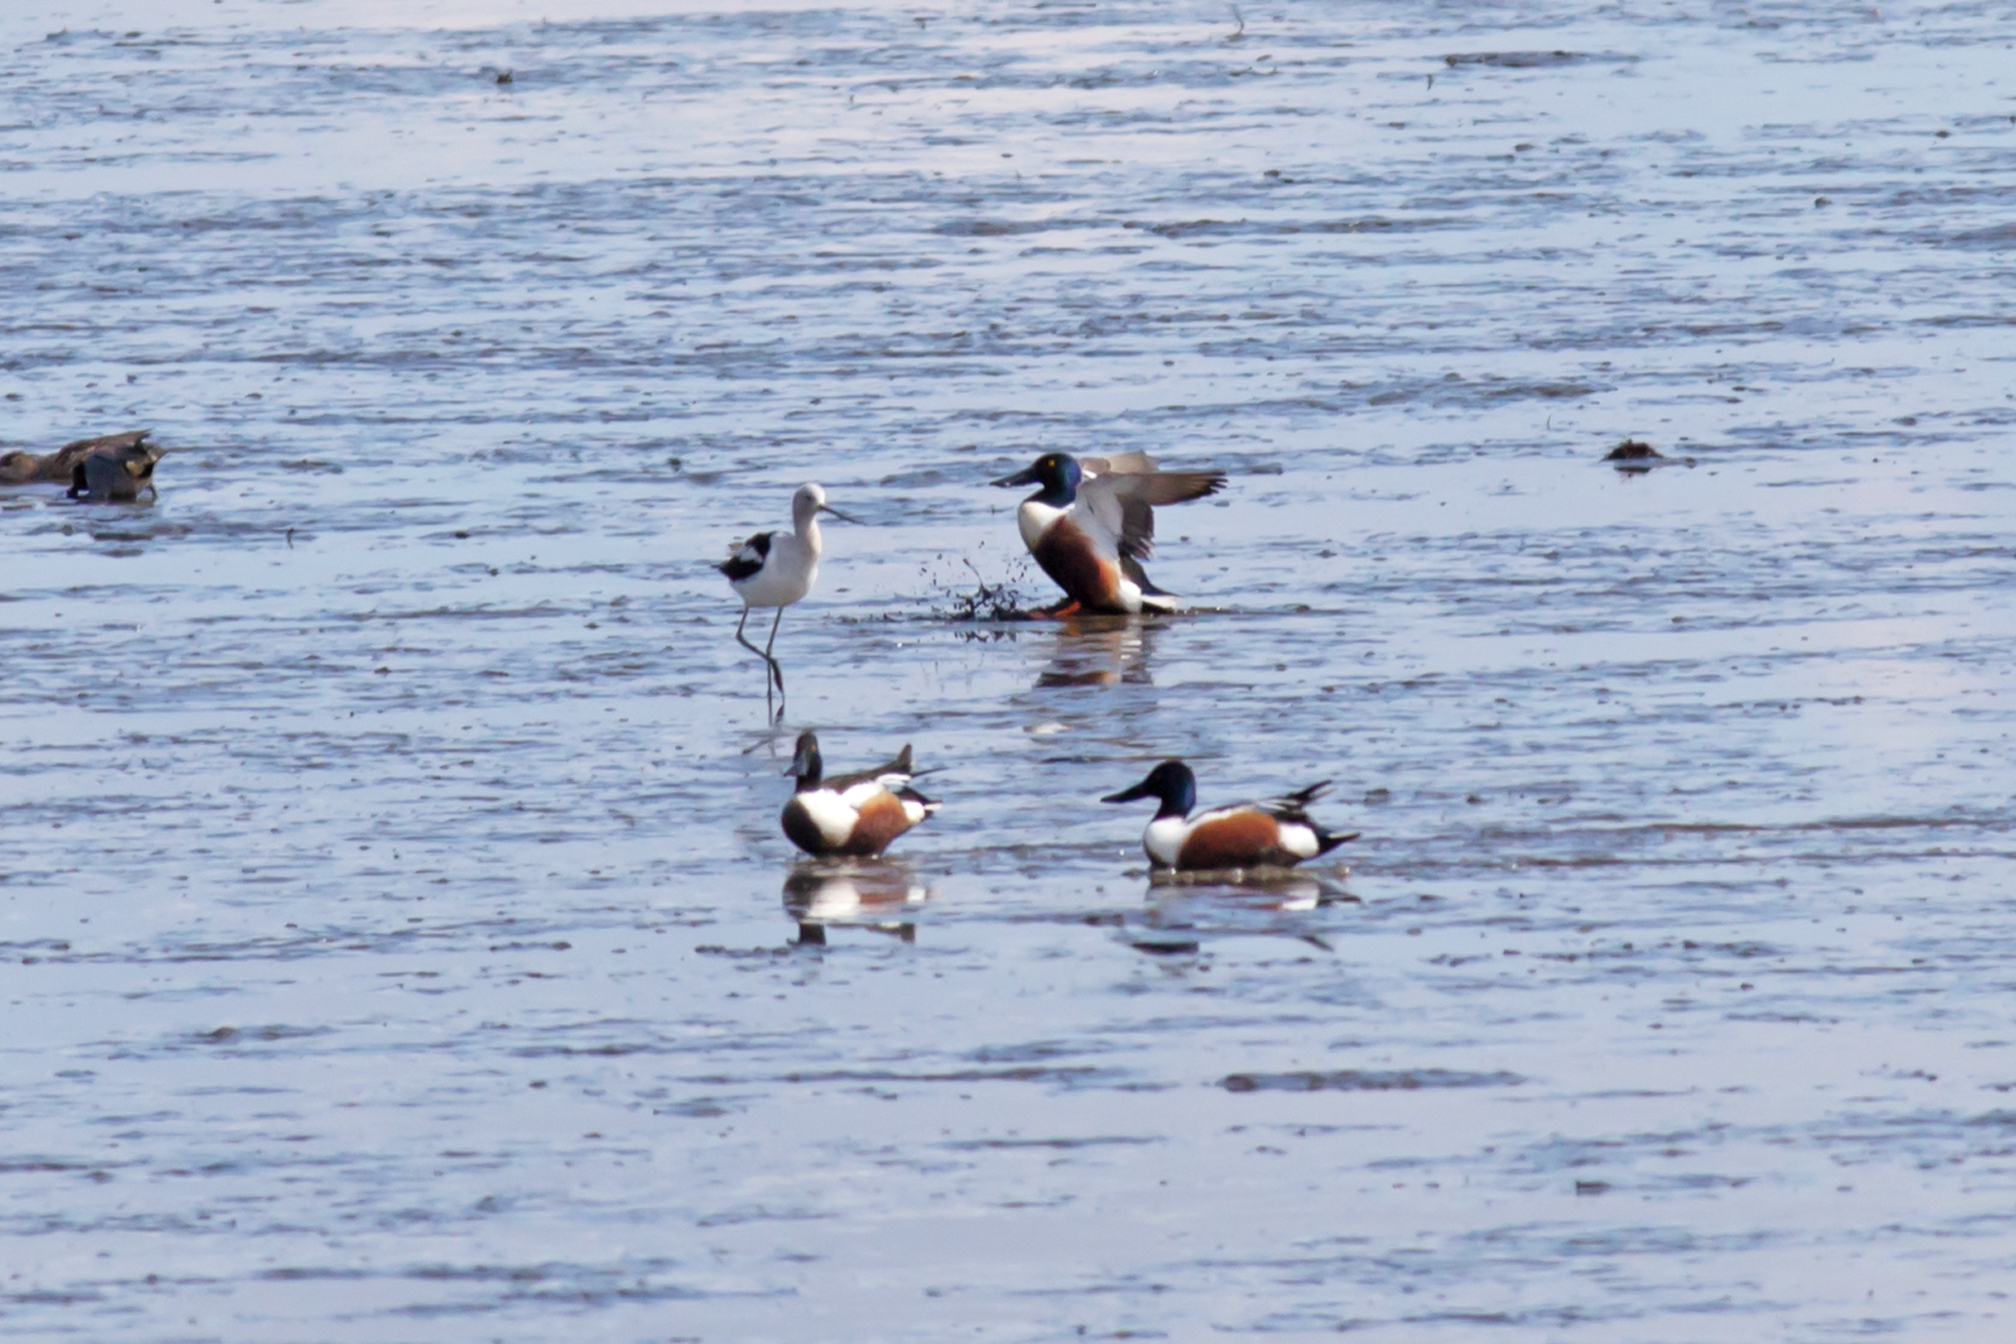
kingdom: Animalia
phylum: Chordata
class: Aves
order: Anseriformes
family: Anatidae
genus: Spatula
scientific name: Spatula clypeata
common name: Northern shoveler
